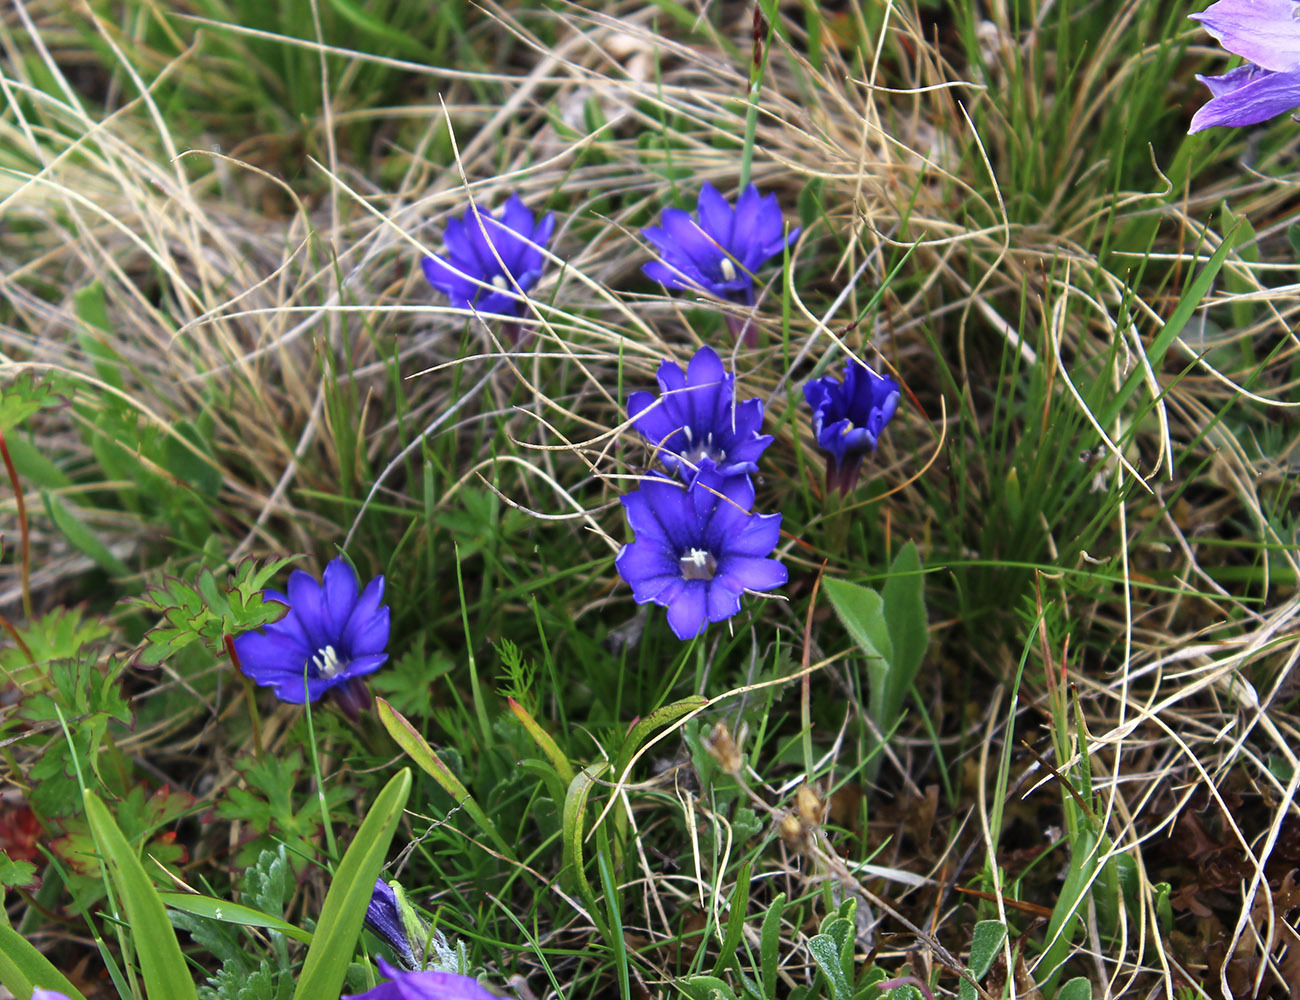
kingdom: Plantae
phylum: Tracheophyta
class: Magnoliopsida
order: Gentianales
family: Gentianaceae
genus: Gentiana
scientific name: Gentiana dshimilensis
